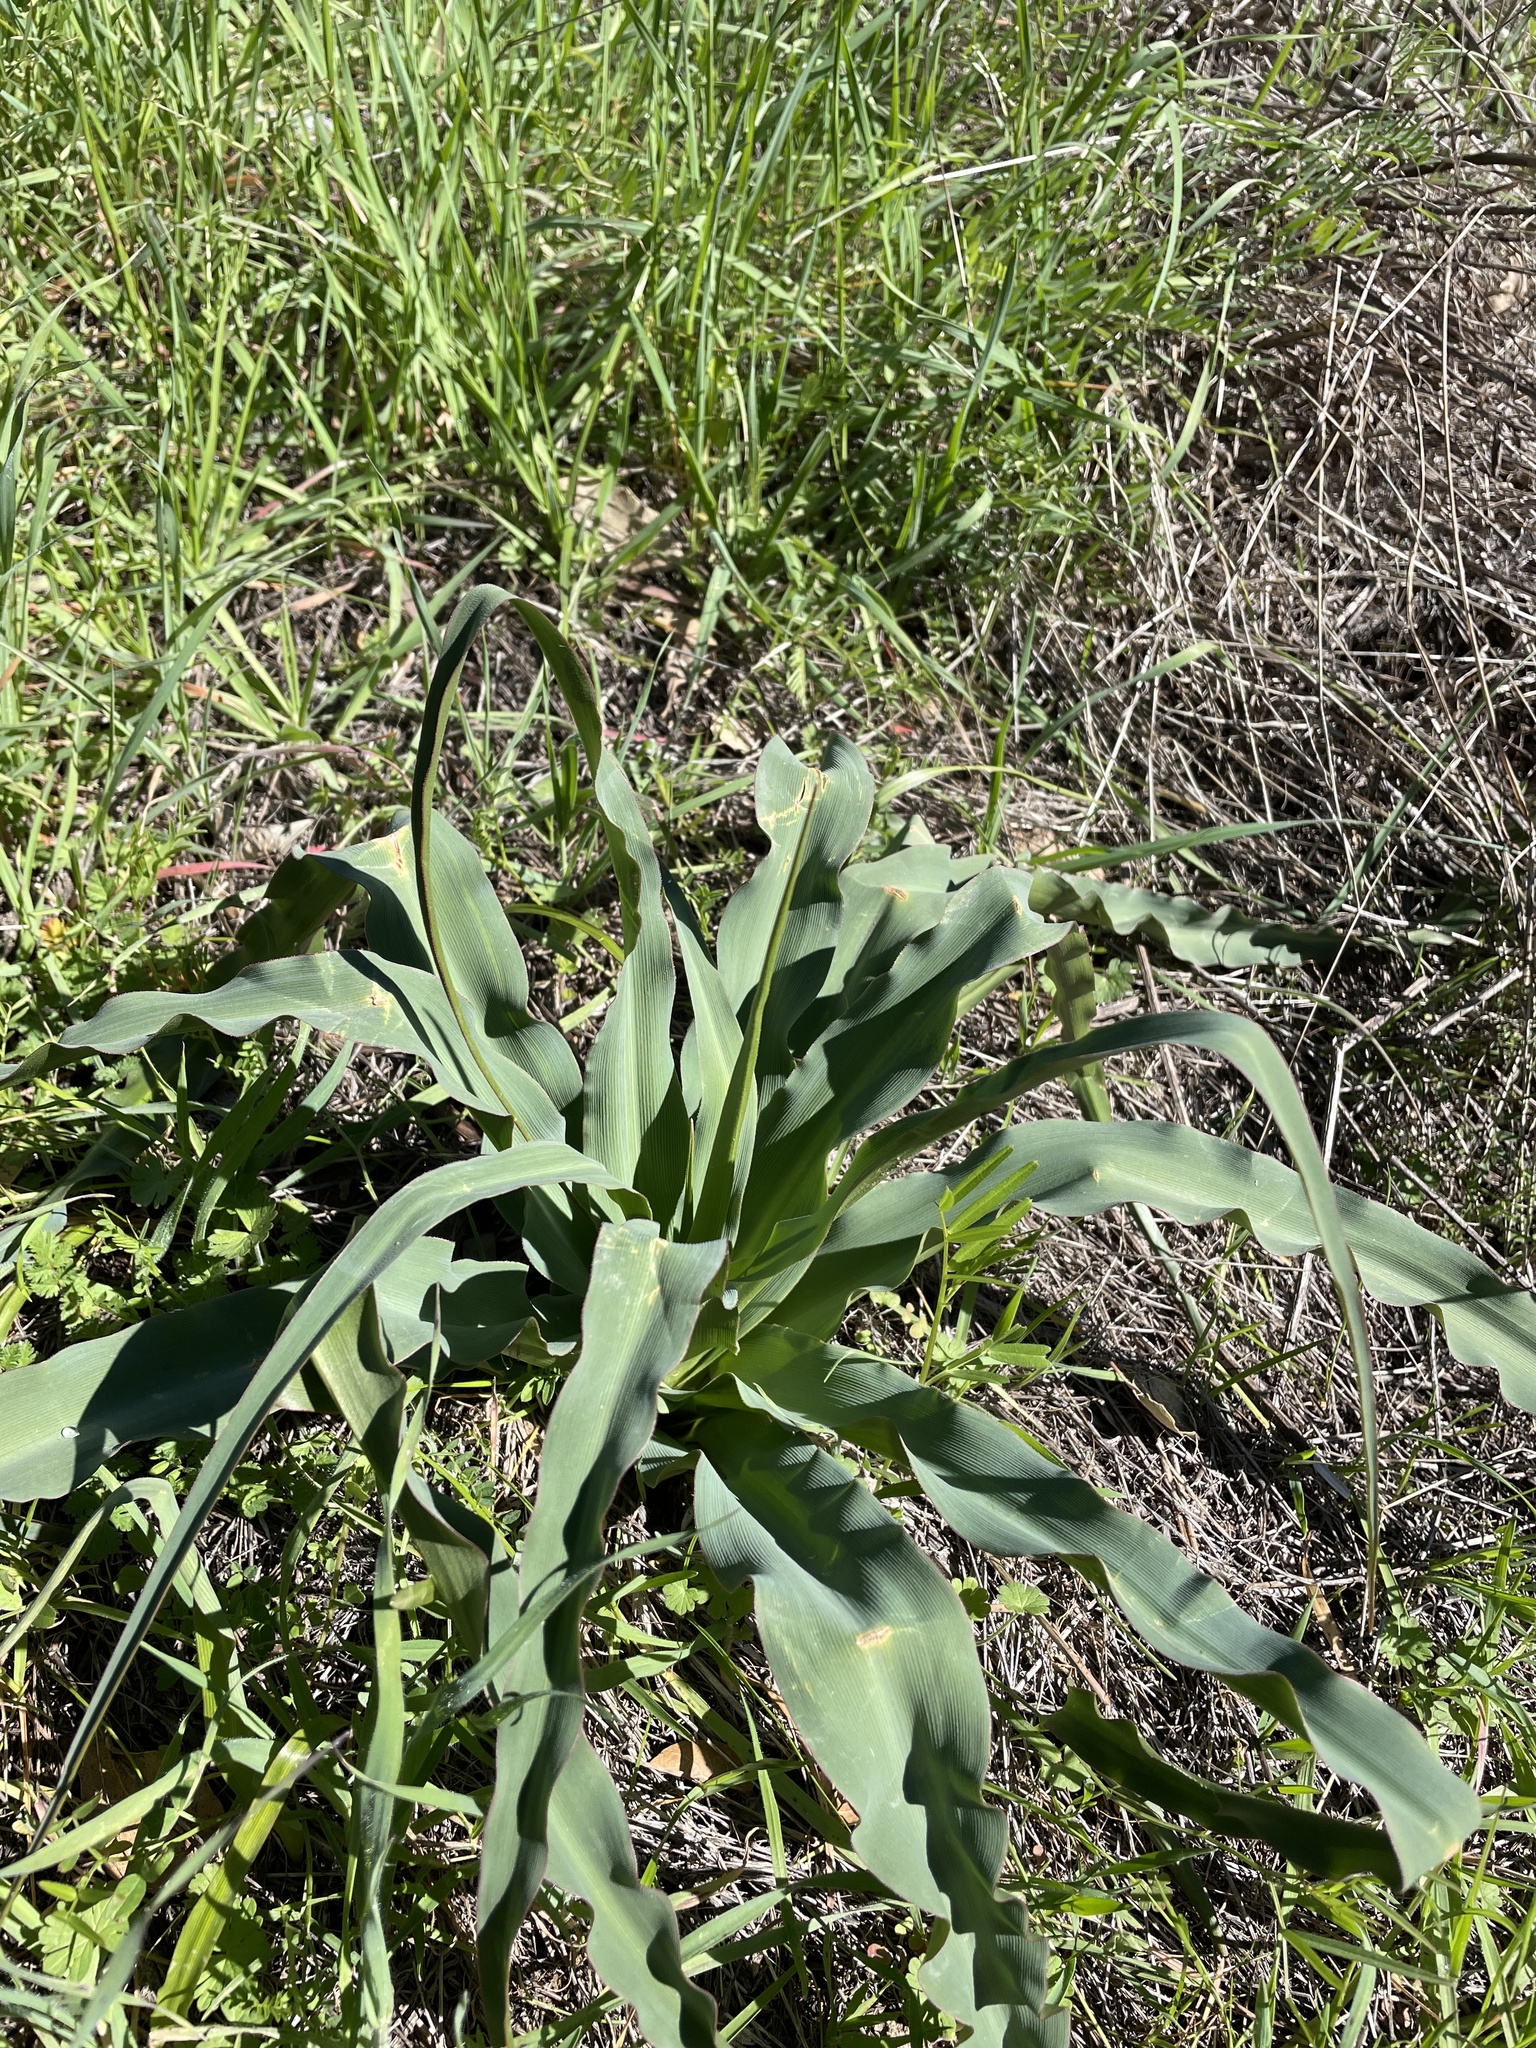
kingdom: Plantae
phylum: Tracheophyta
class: Liliopsida
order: Asparagales
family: Asparagaceae
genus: Chlorogalum
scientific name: Chlorogalum pomeridianum
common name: Amole
